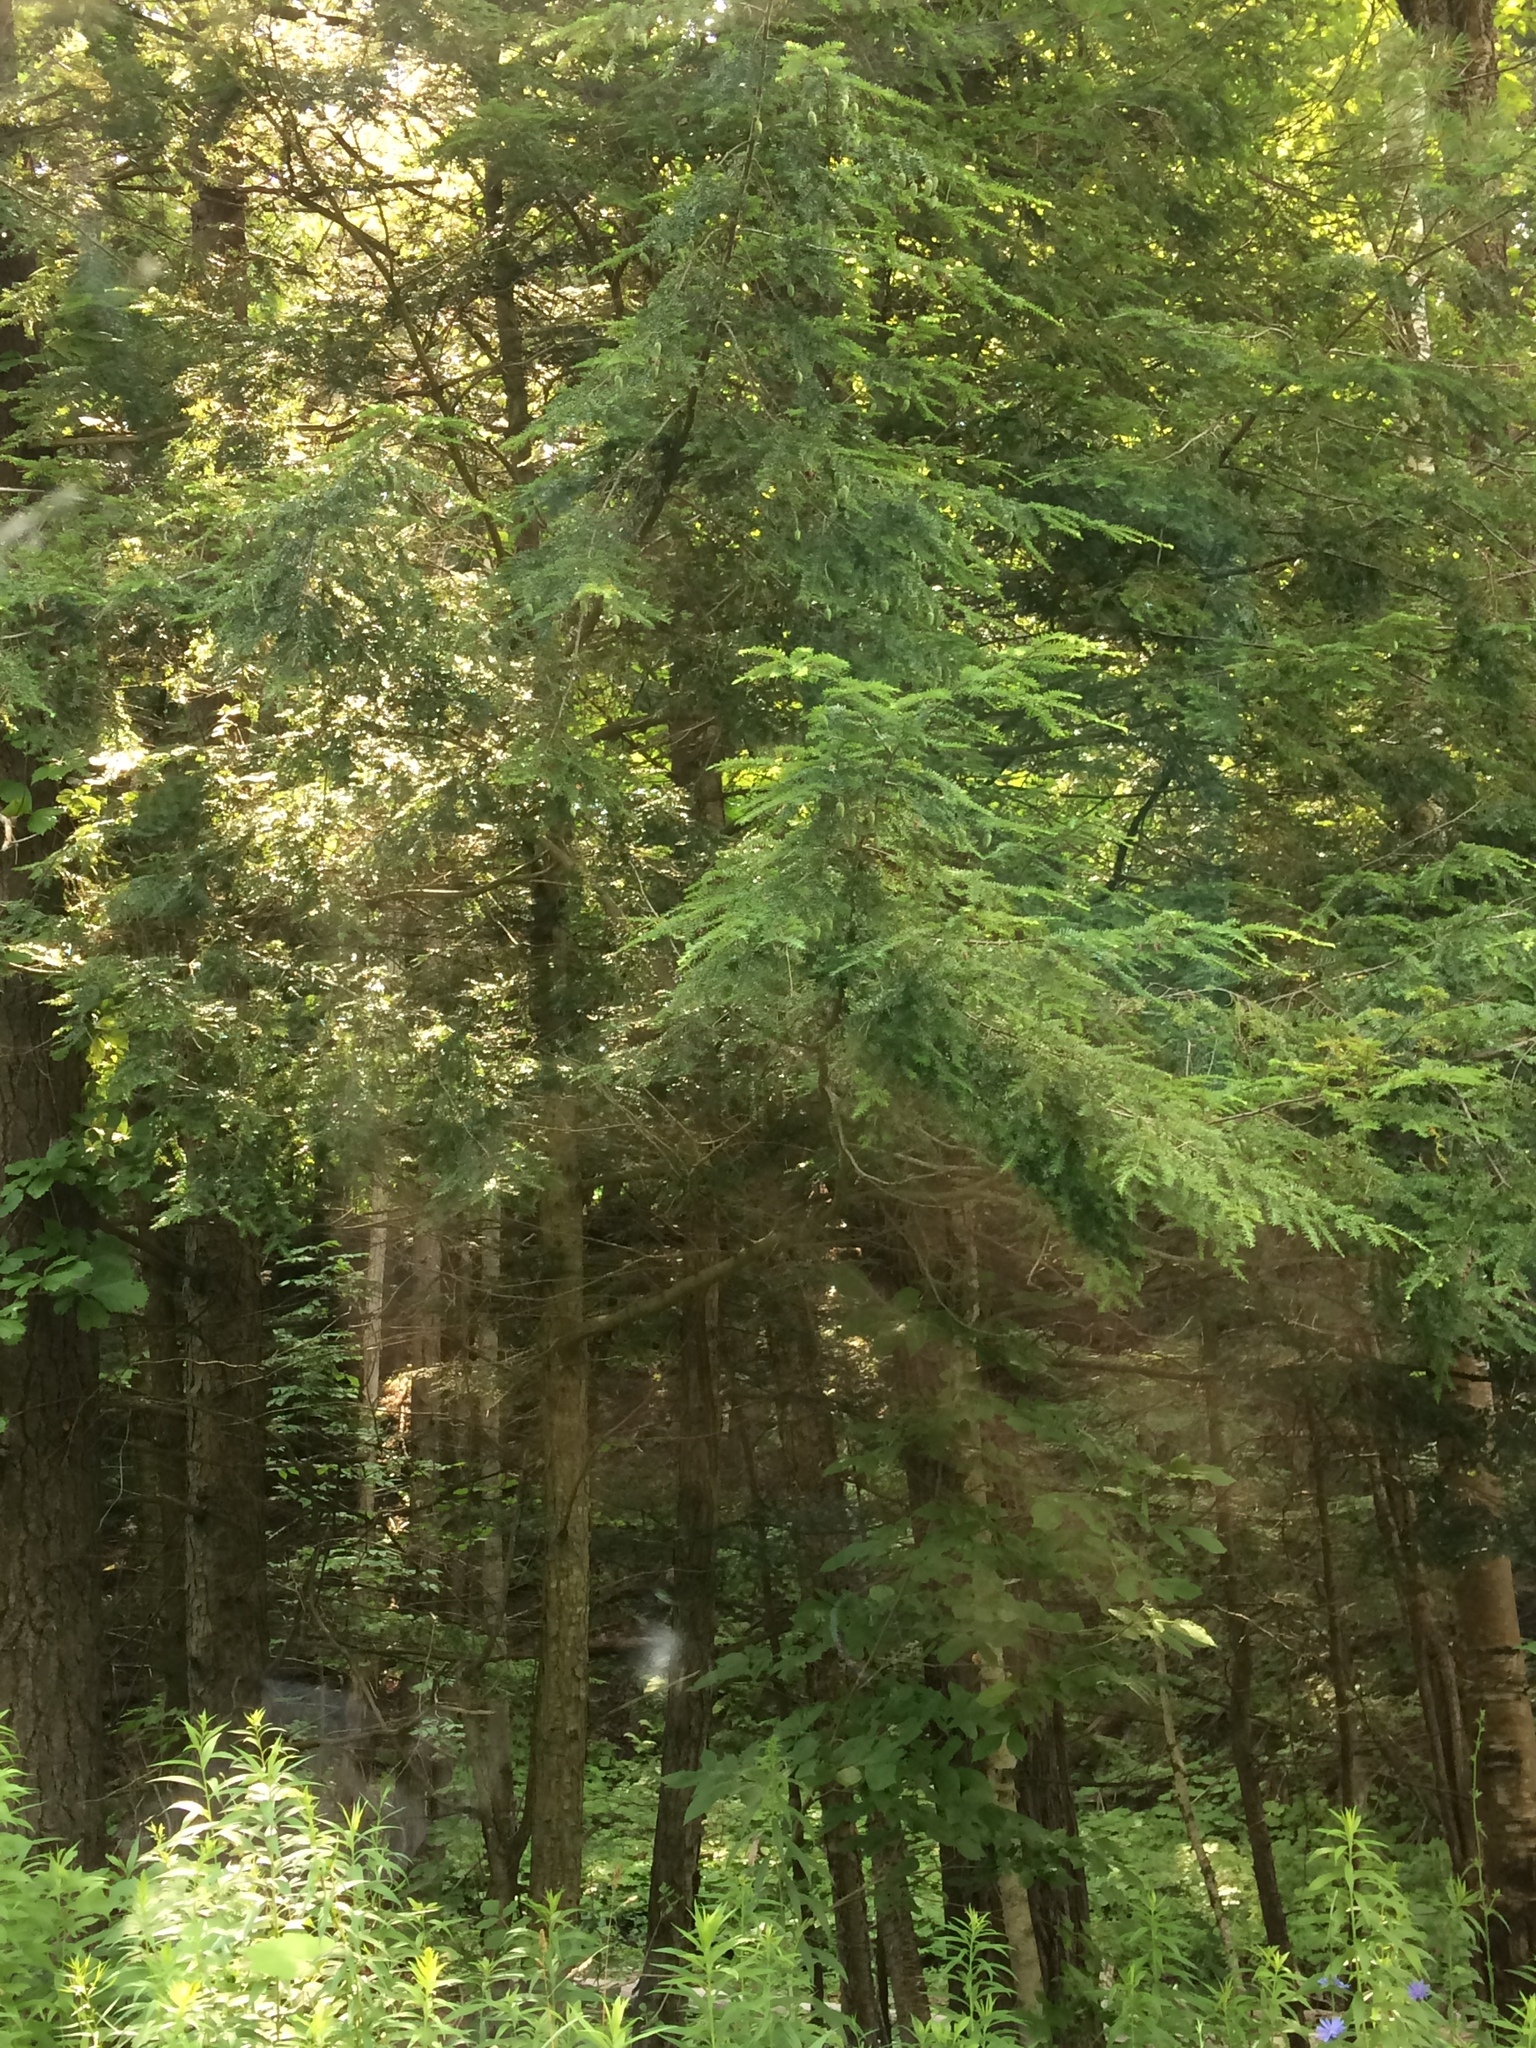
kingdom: Plantae
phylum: Tracheophyta
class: Pinopsida
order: Pinales
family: Pinaceae
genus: Tsuga
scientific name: Tsuga canadensis
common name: Eastern hemlock
